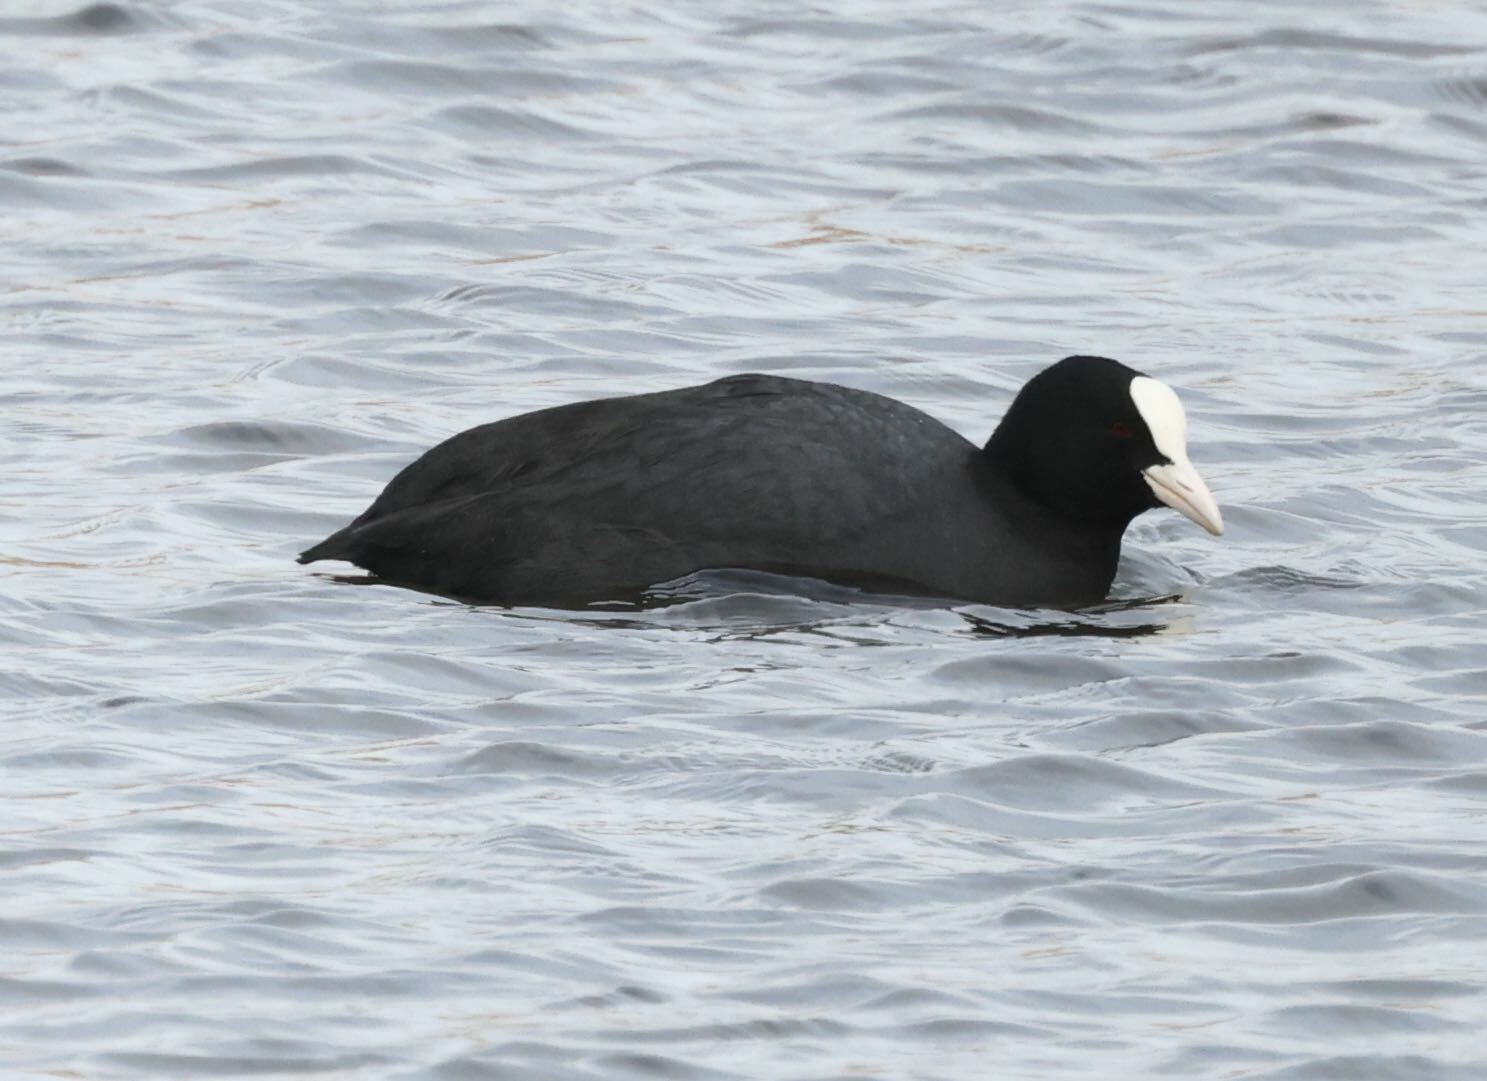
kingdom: Animalia
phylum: Chordata
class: Aves
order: Gruiformes
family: Rallidae
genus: Fulica
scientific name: Fulica atra
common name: Eurasian coot
